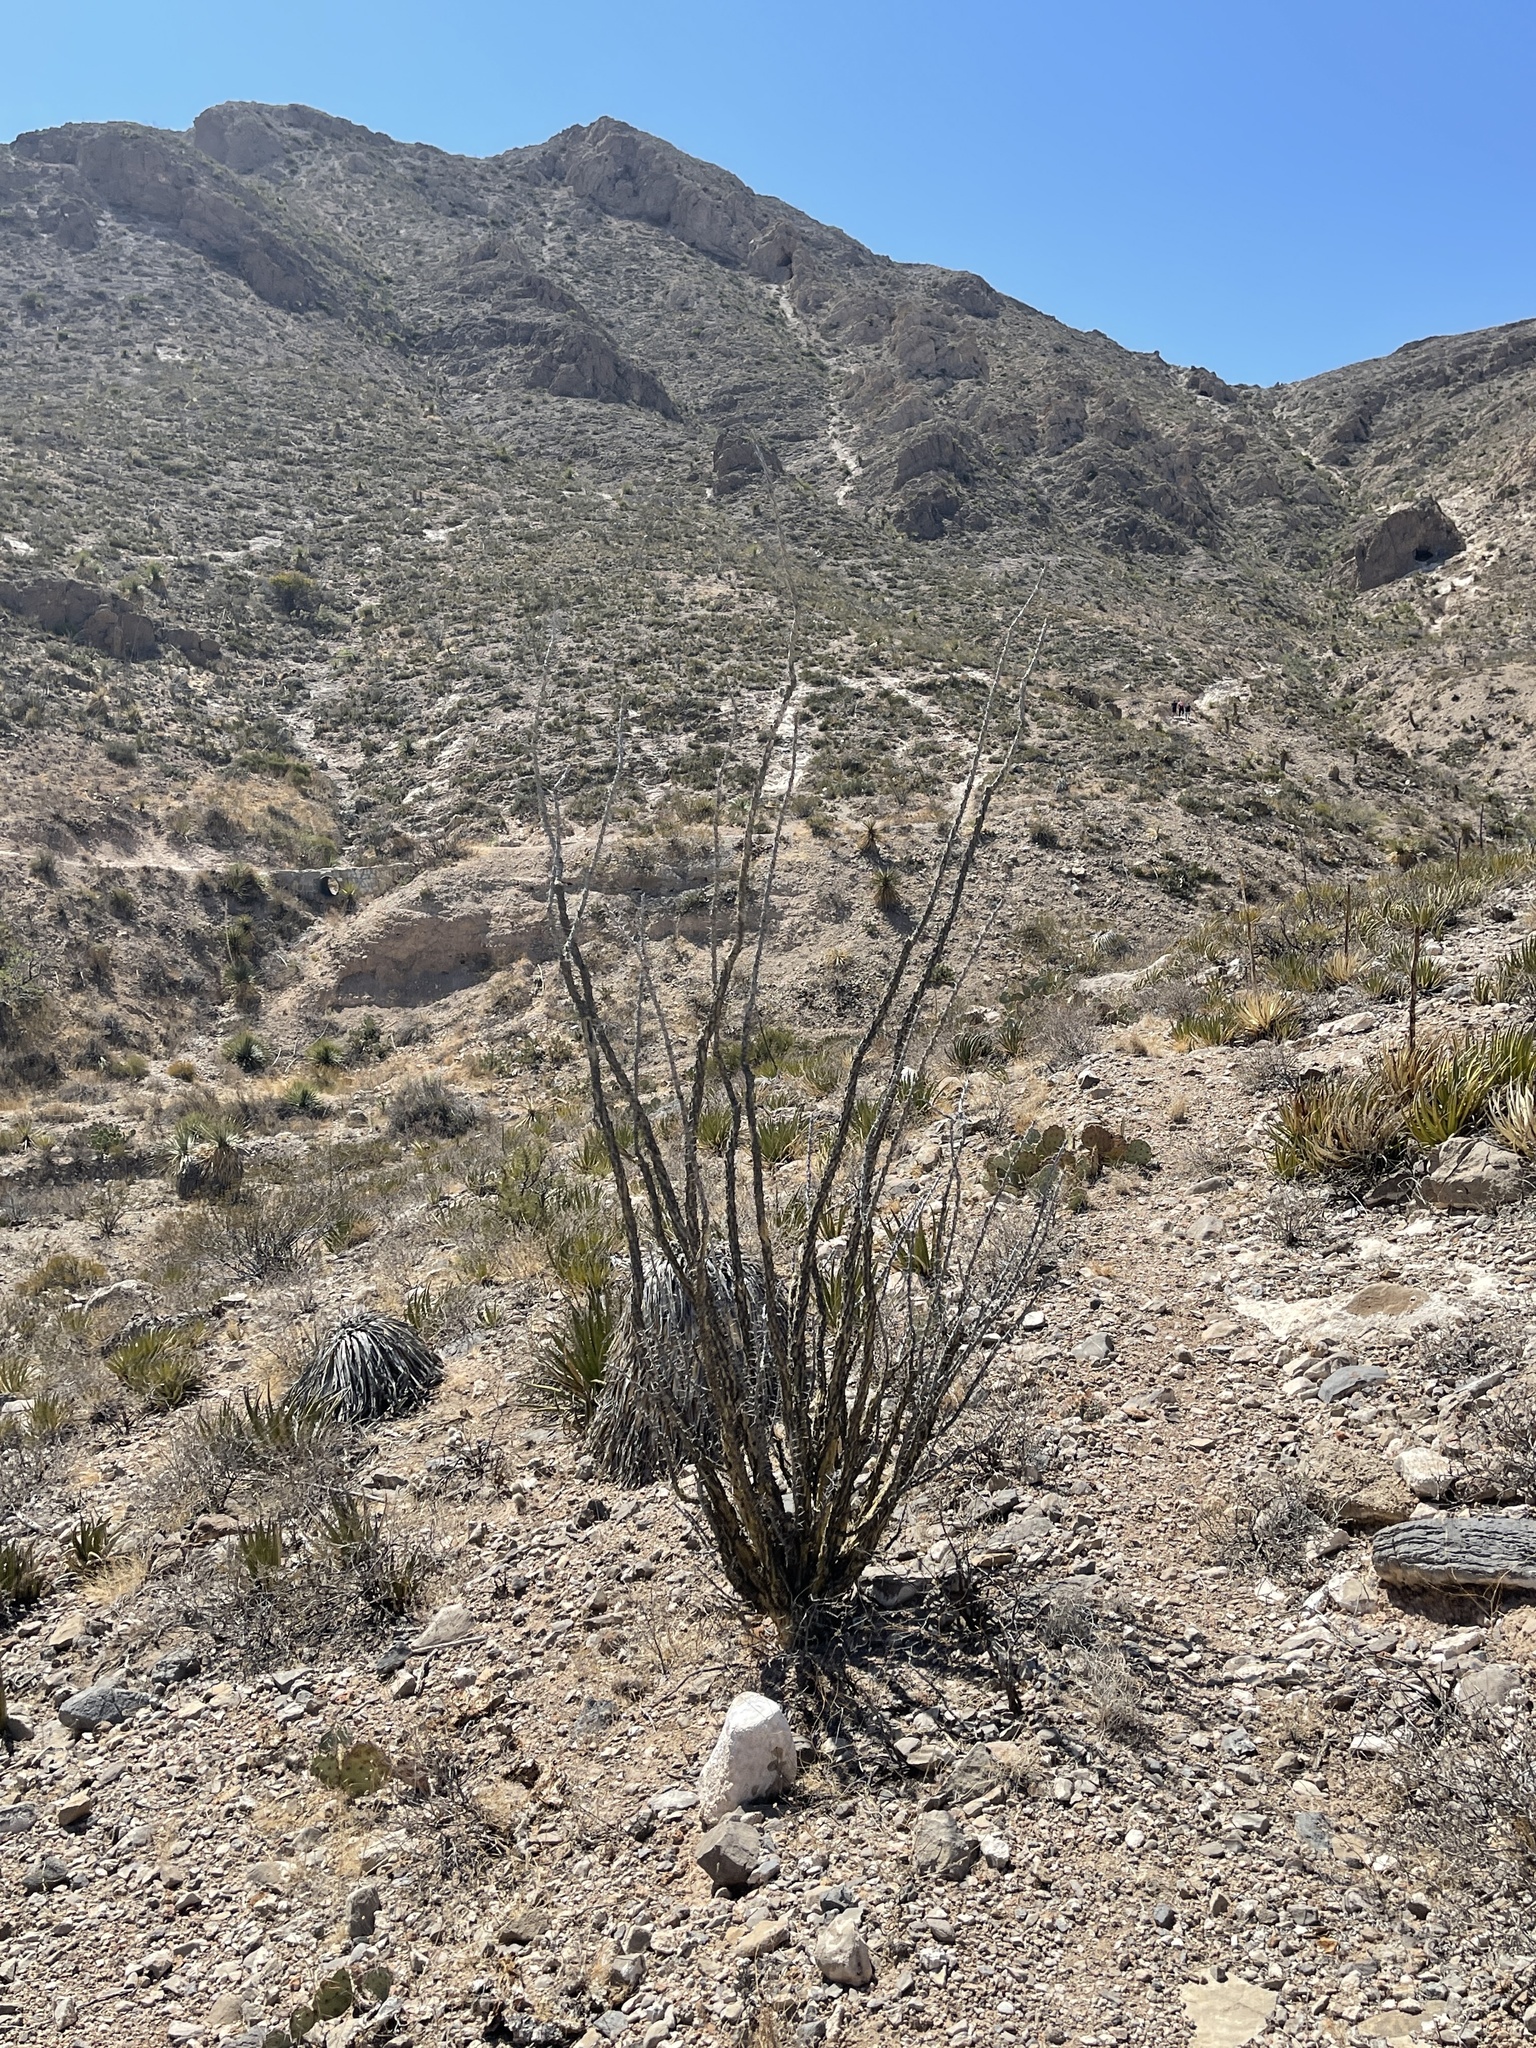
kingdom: Plantae
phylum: Tracheophyta
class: Magnoliopsida
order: Ericales
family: Fouquieriaceae
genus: Fouquieria
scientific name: Fouquieria splendens
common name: Vine-cactus
